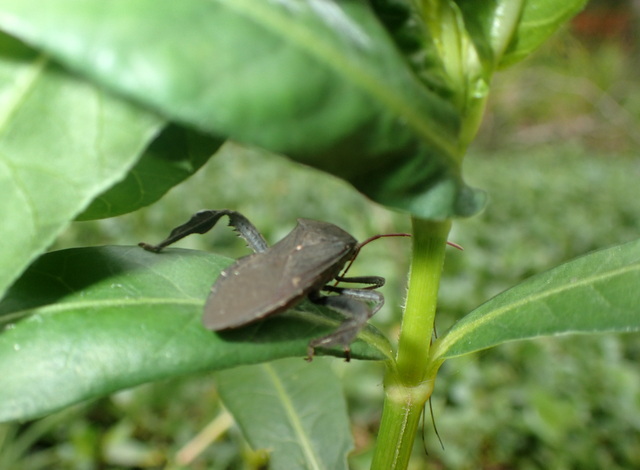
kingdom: Animalia
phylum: Arthropoda
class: Insecta
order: Hemiptera
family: Coreidae
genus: Acanthocephala
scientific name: Acanthocephala femorata
